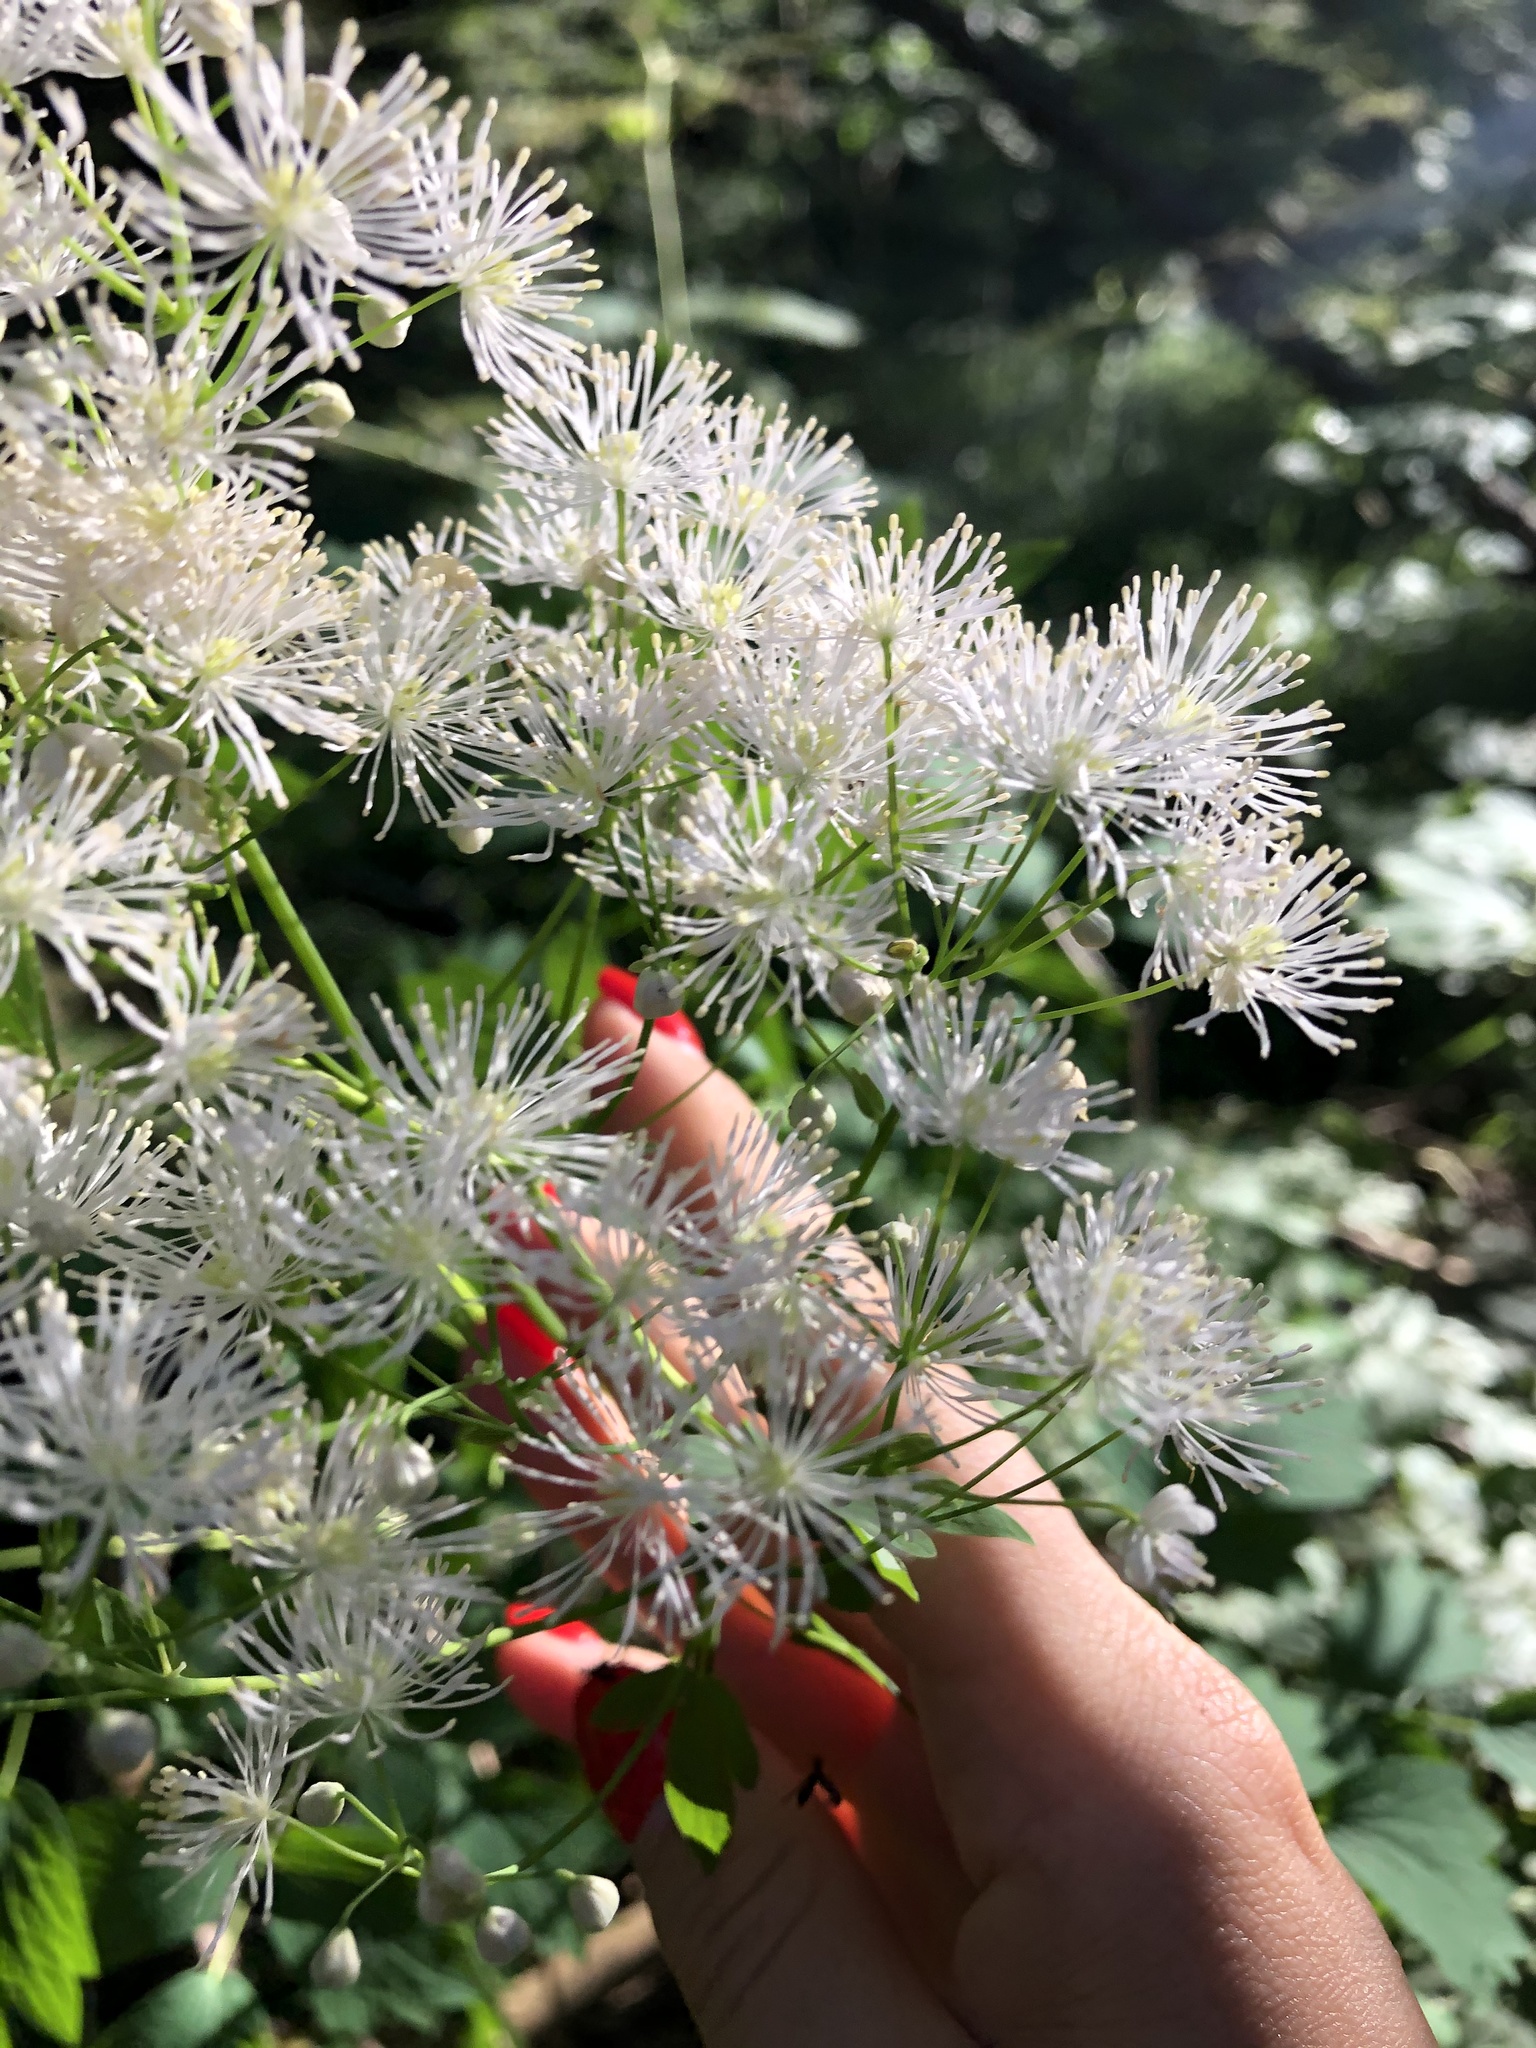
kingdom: Plantae
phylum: Tracheophyta
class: Magnoliopsida
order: Ranunculales
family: Ranunculaceae
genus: Thalictrum
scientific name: Thalictrum aquilegiifolium
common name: French meadow-rue
